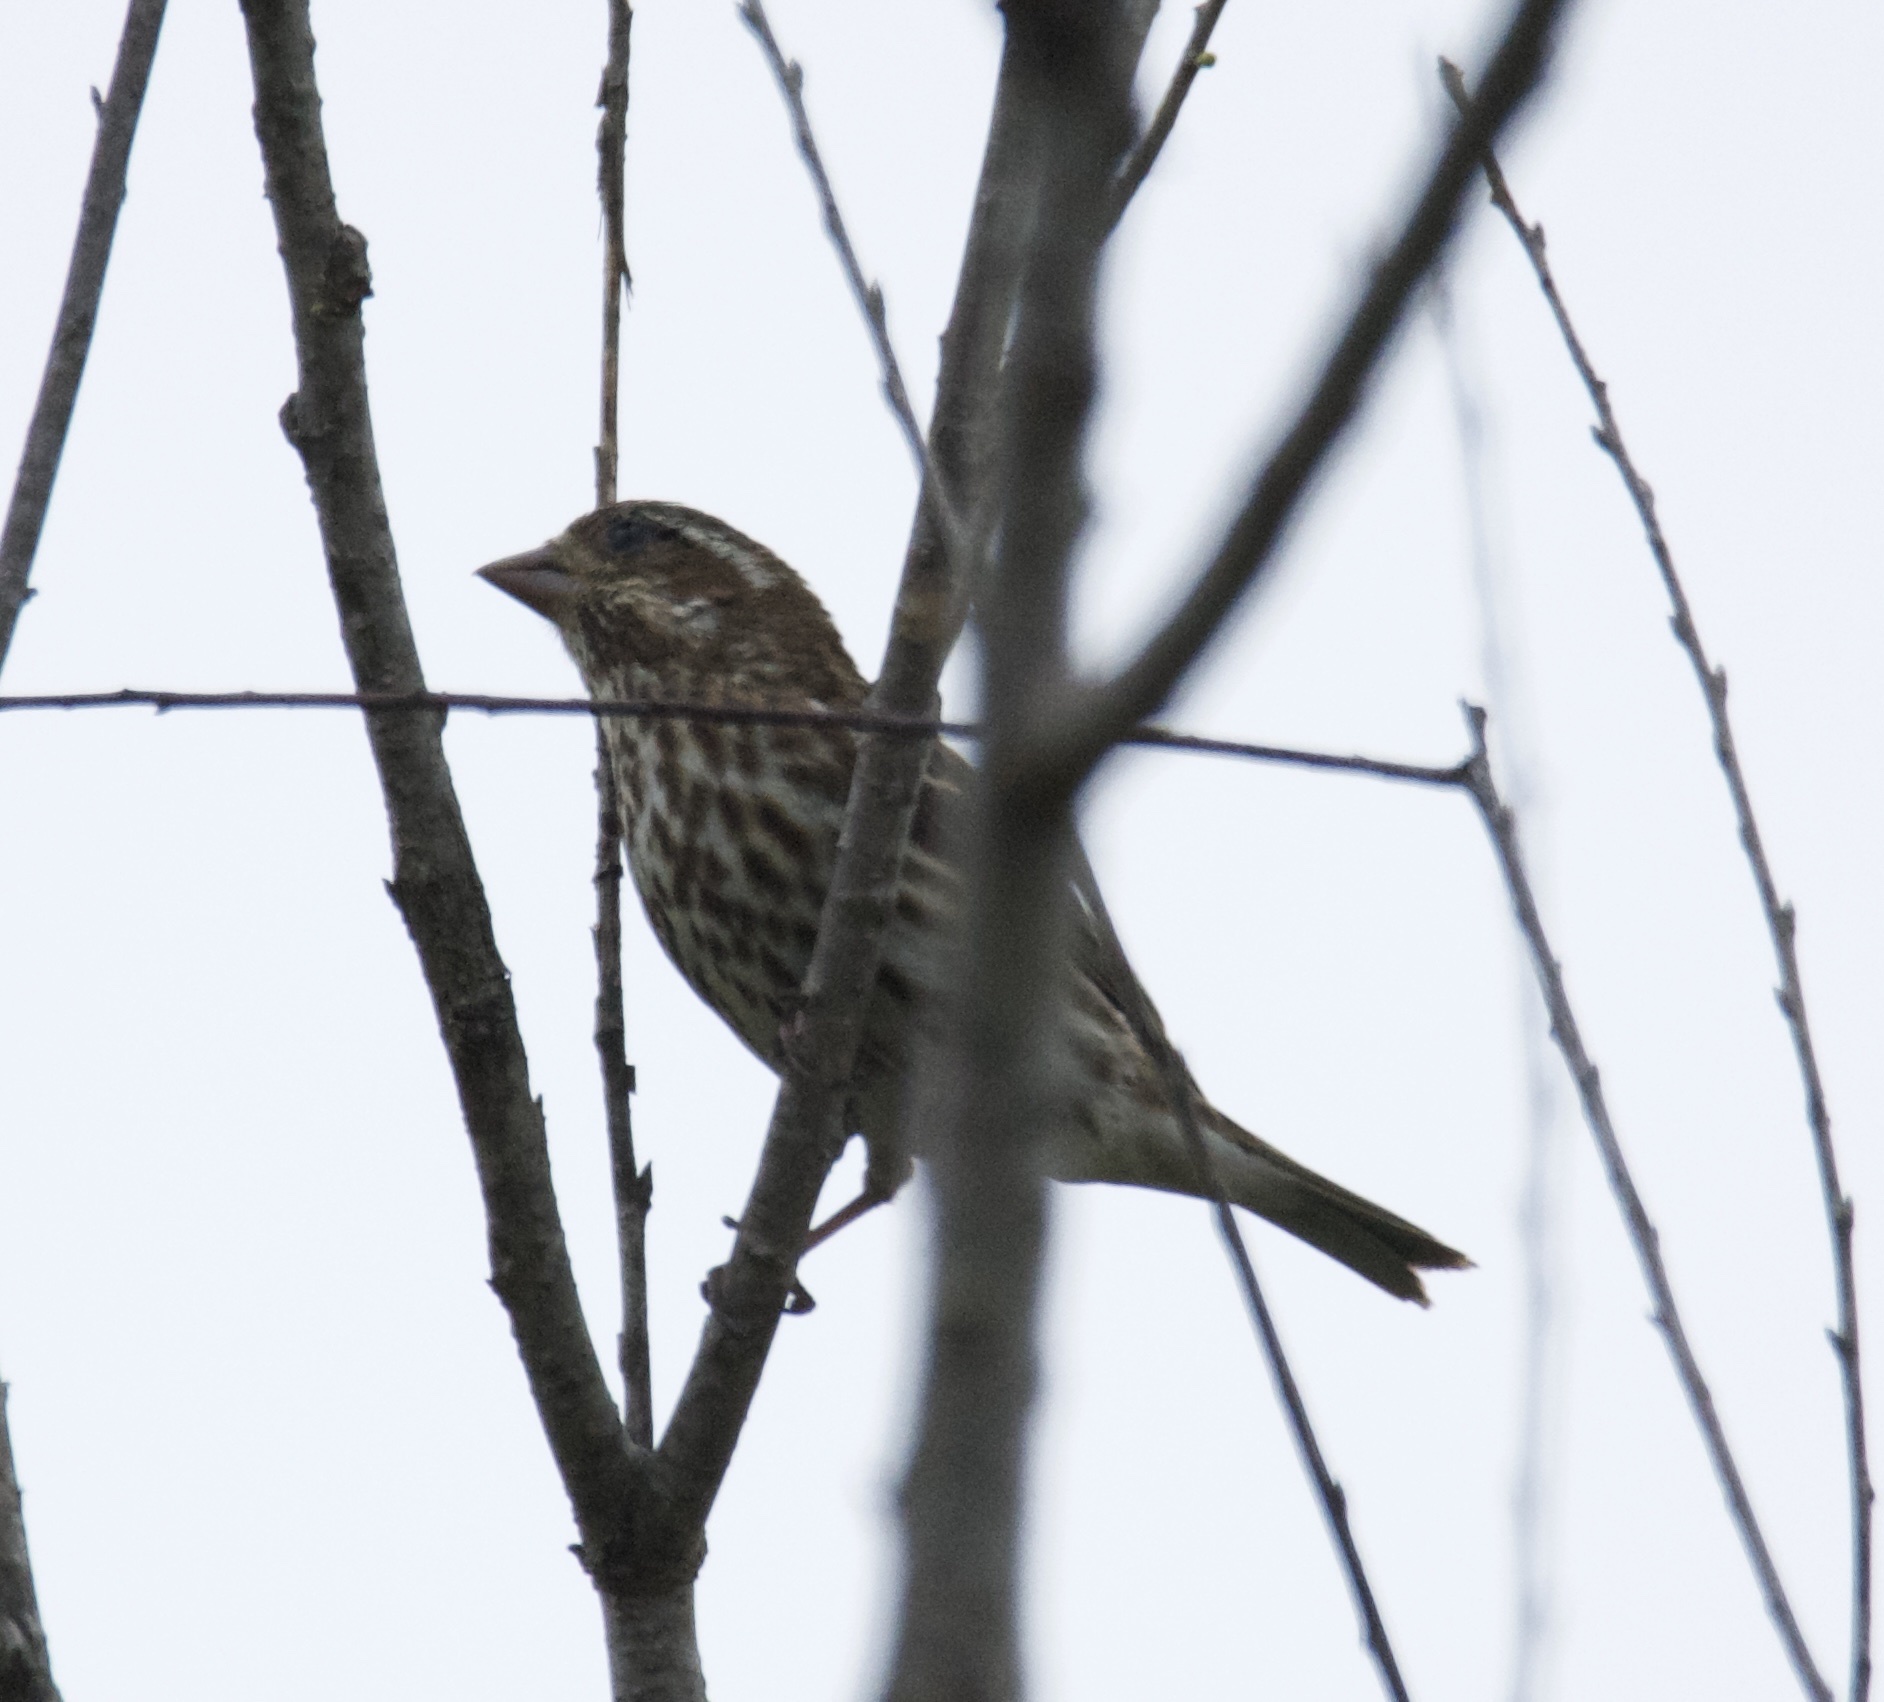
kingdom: Animalia
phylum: Chordata
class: Aves
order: Passeriformes
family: Fringillidae
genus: Haemorhous
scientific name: Haemorhous purpureus
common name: Purple finch
